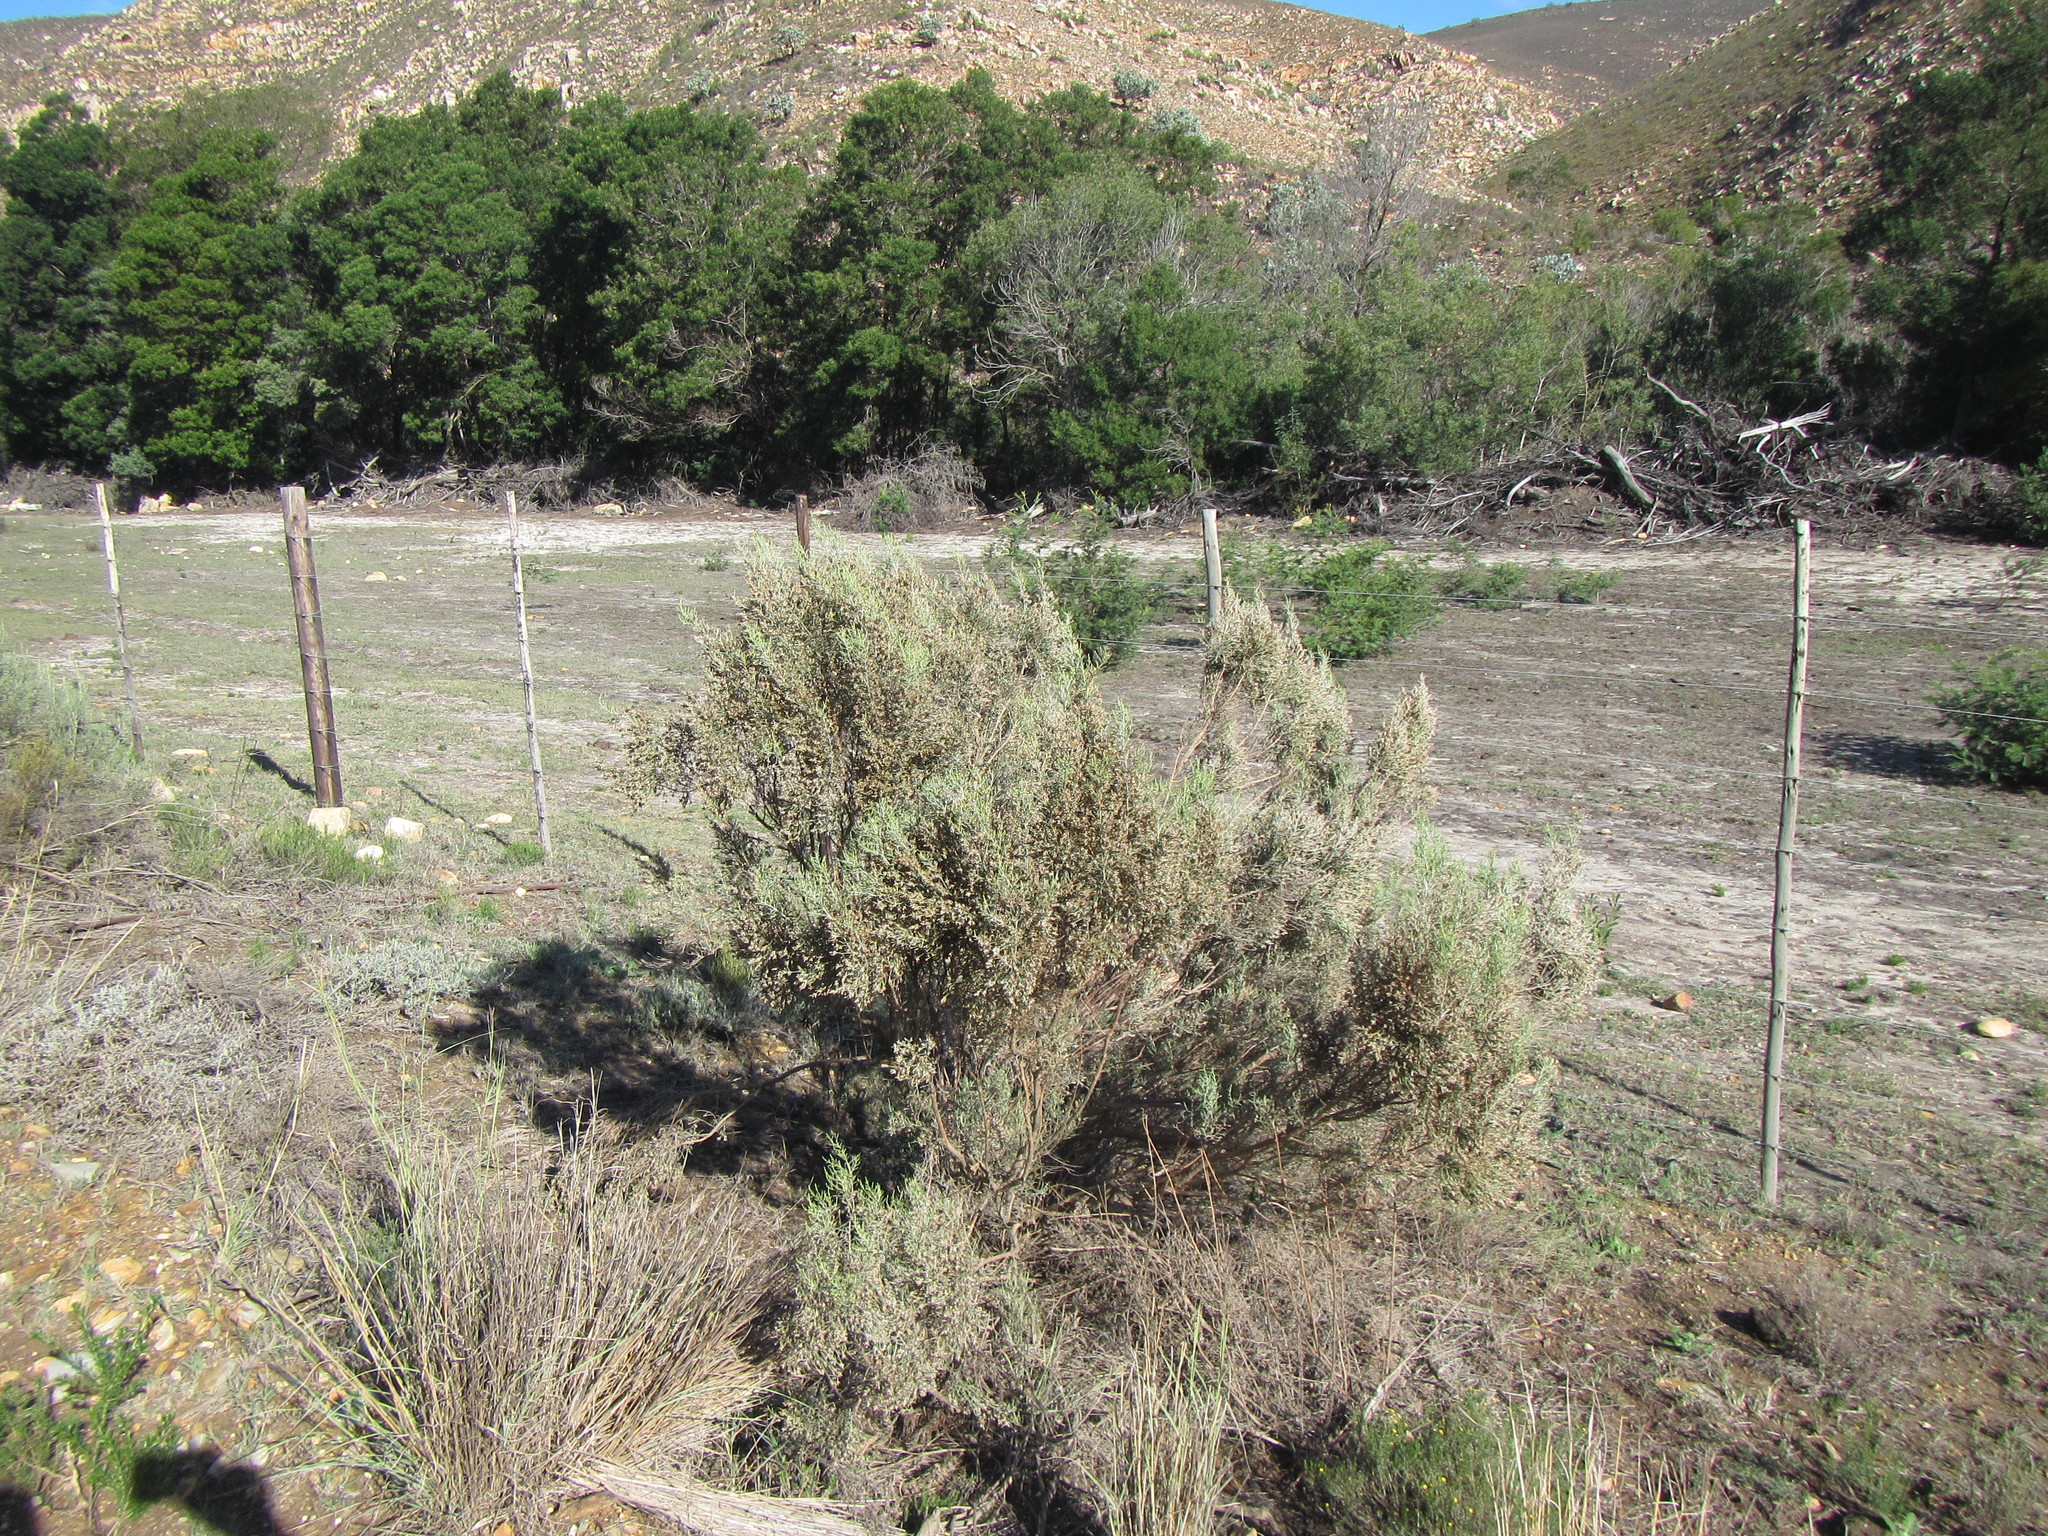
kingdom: Plantae
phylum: Tracheophyta
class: Magnoliopsida
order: Asterales
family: Asteraceae
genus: Dicerothamnus
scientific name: Dicerothamnus rhinocerotis
